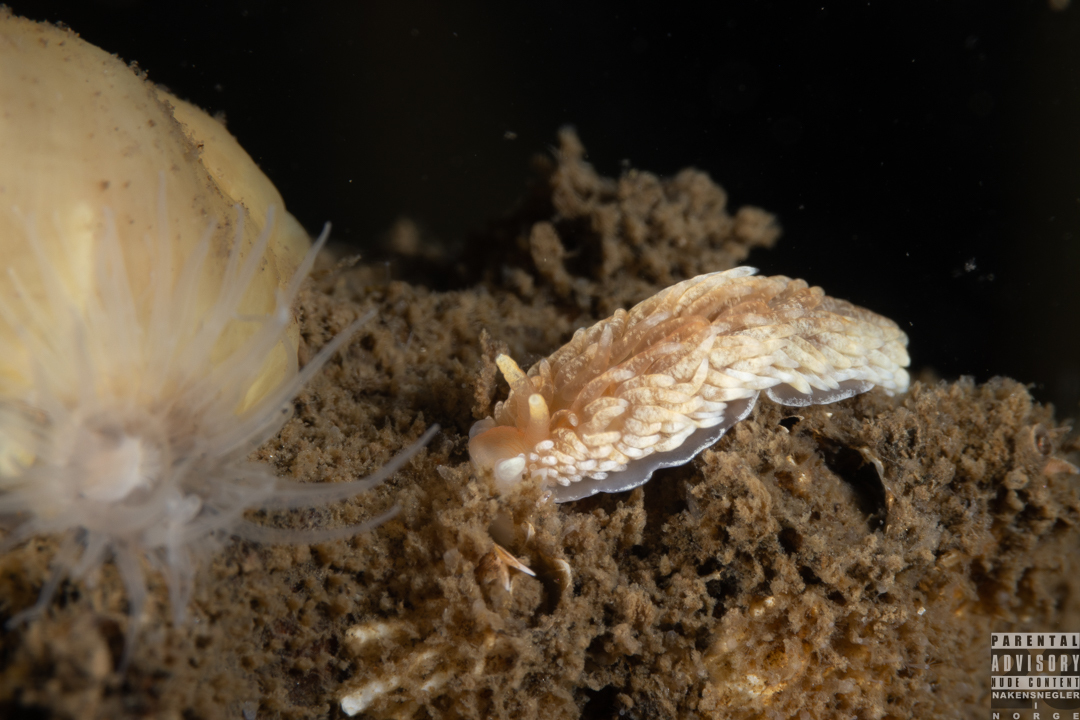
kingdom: Animalia
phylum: Mollusca
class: Gastropoda
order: Nudibranchia
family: Aeolidiidae
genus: Aeolidiella
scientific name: Aeolidiella glauca
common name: Orange-brown aeolid
